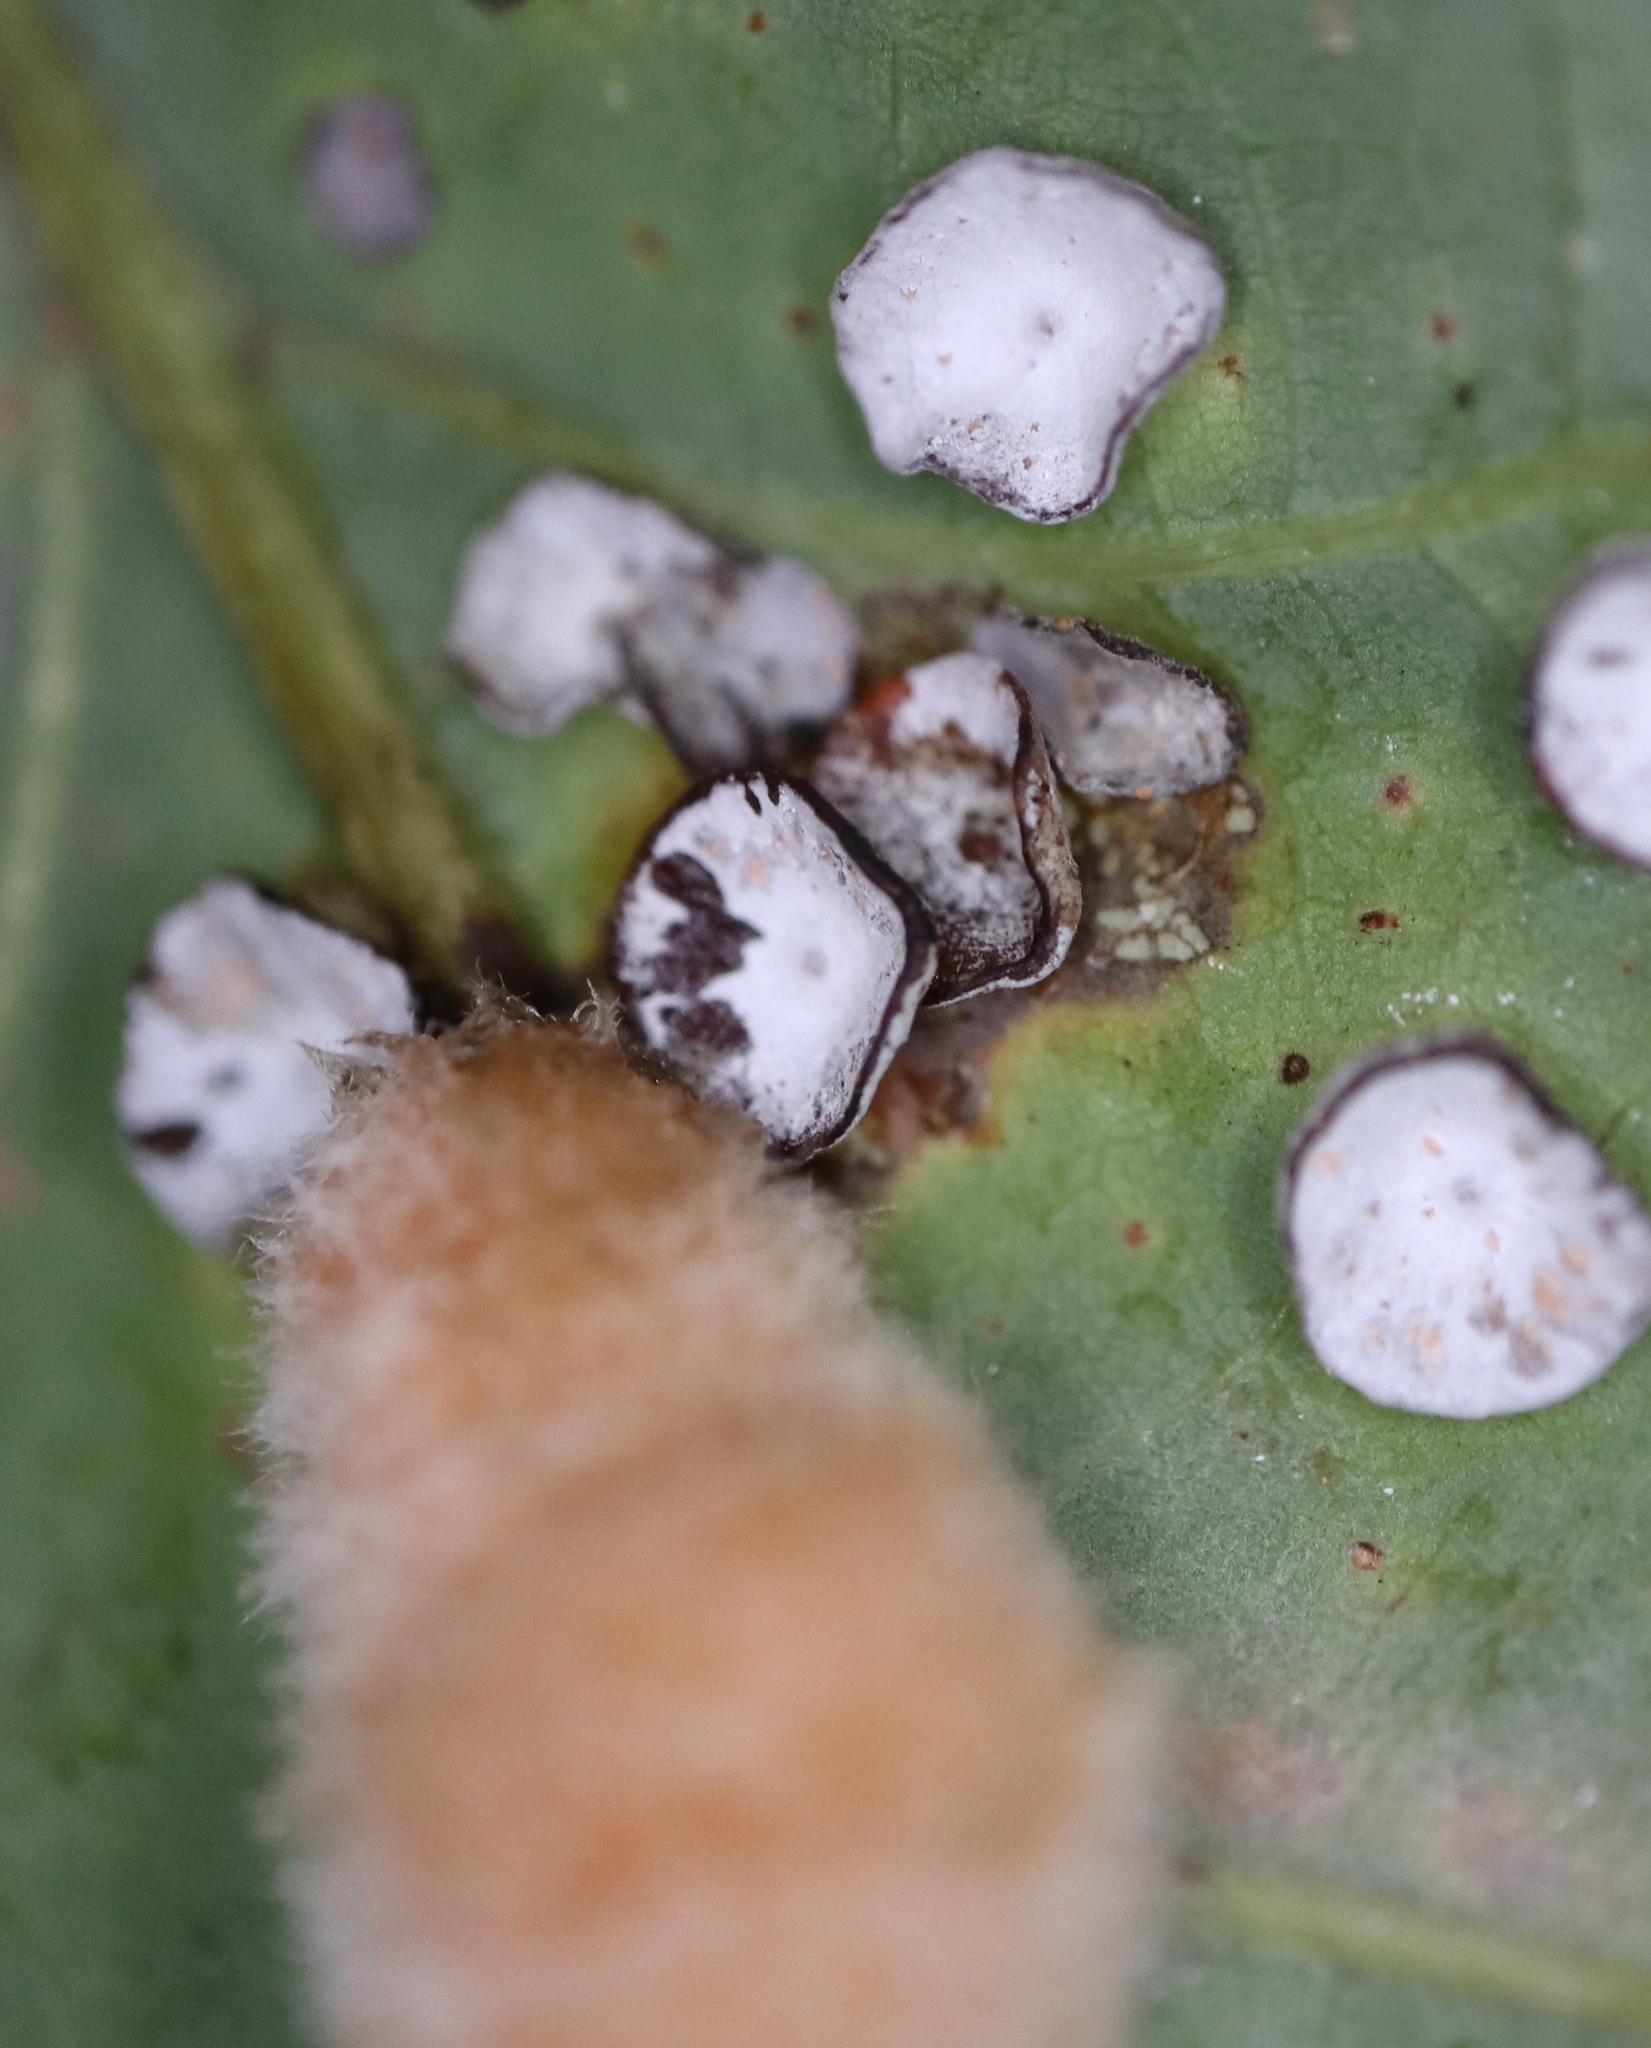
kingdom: Animalia
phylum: Arthropoda
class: Insecta
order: Hymenoptera
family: Cynipidae
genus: Phylloteras
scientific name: Phylloteras poculum
